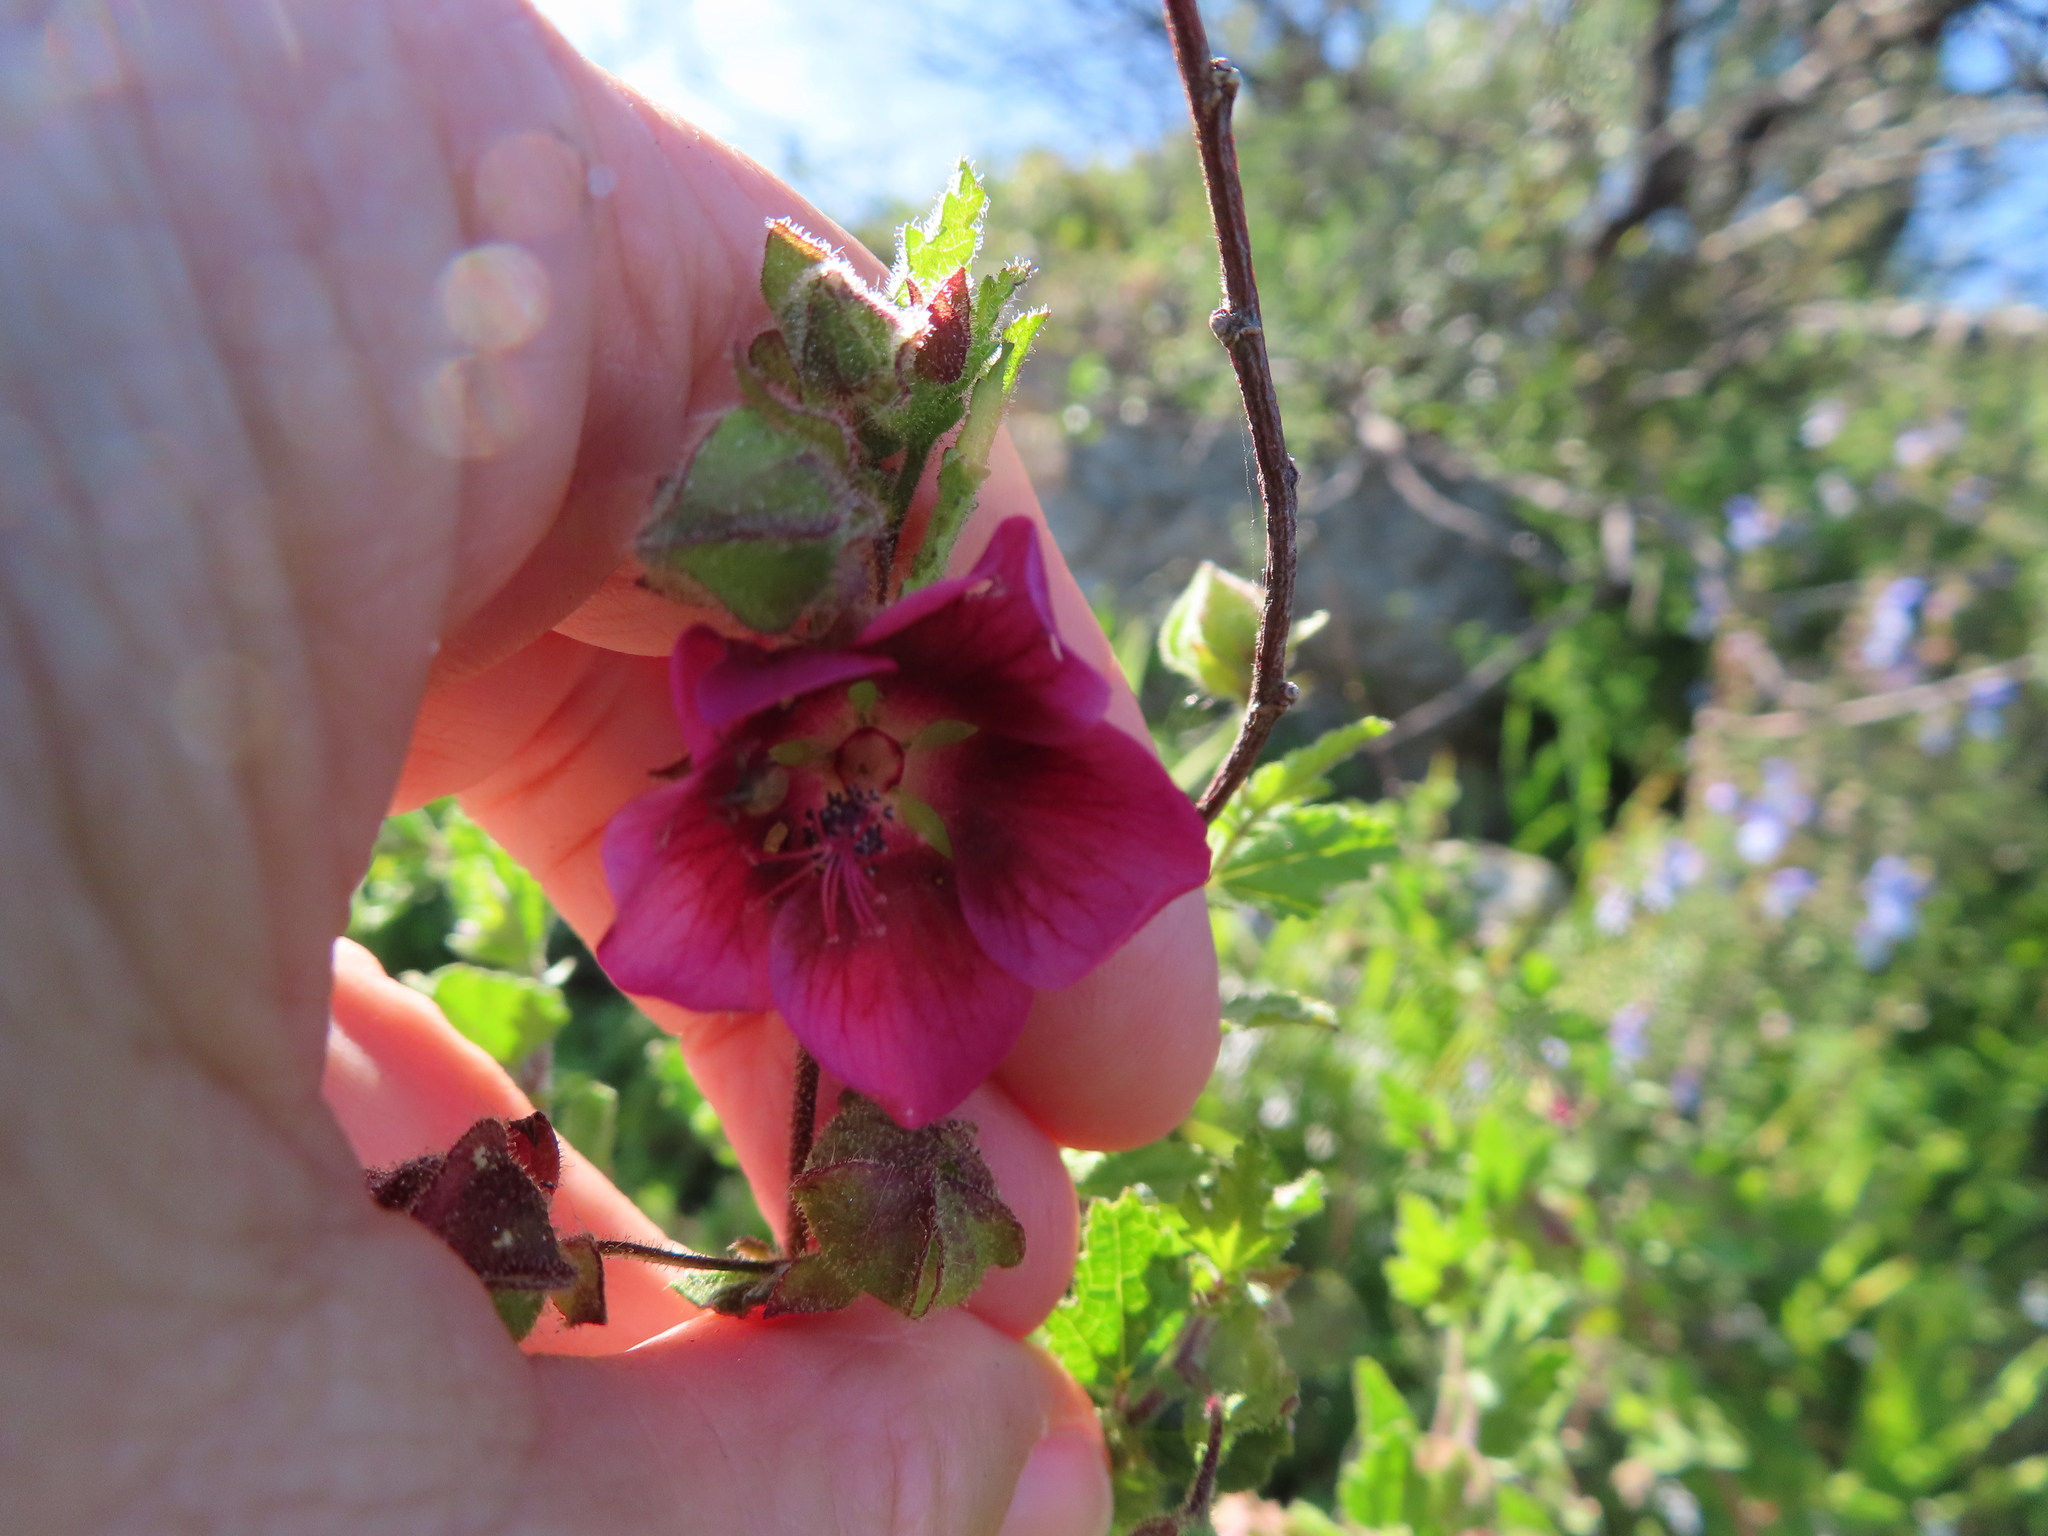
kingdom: Plantae
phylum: Tracheophyta
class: Magnoliopsida
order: Malvales
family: Malvaceae
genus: Anisodontea
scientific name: Anisodontea scabrosa
